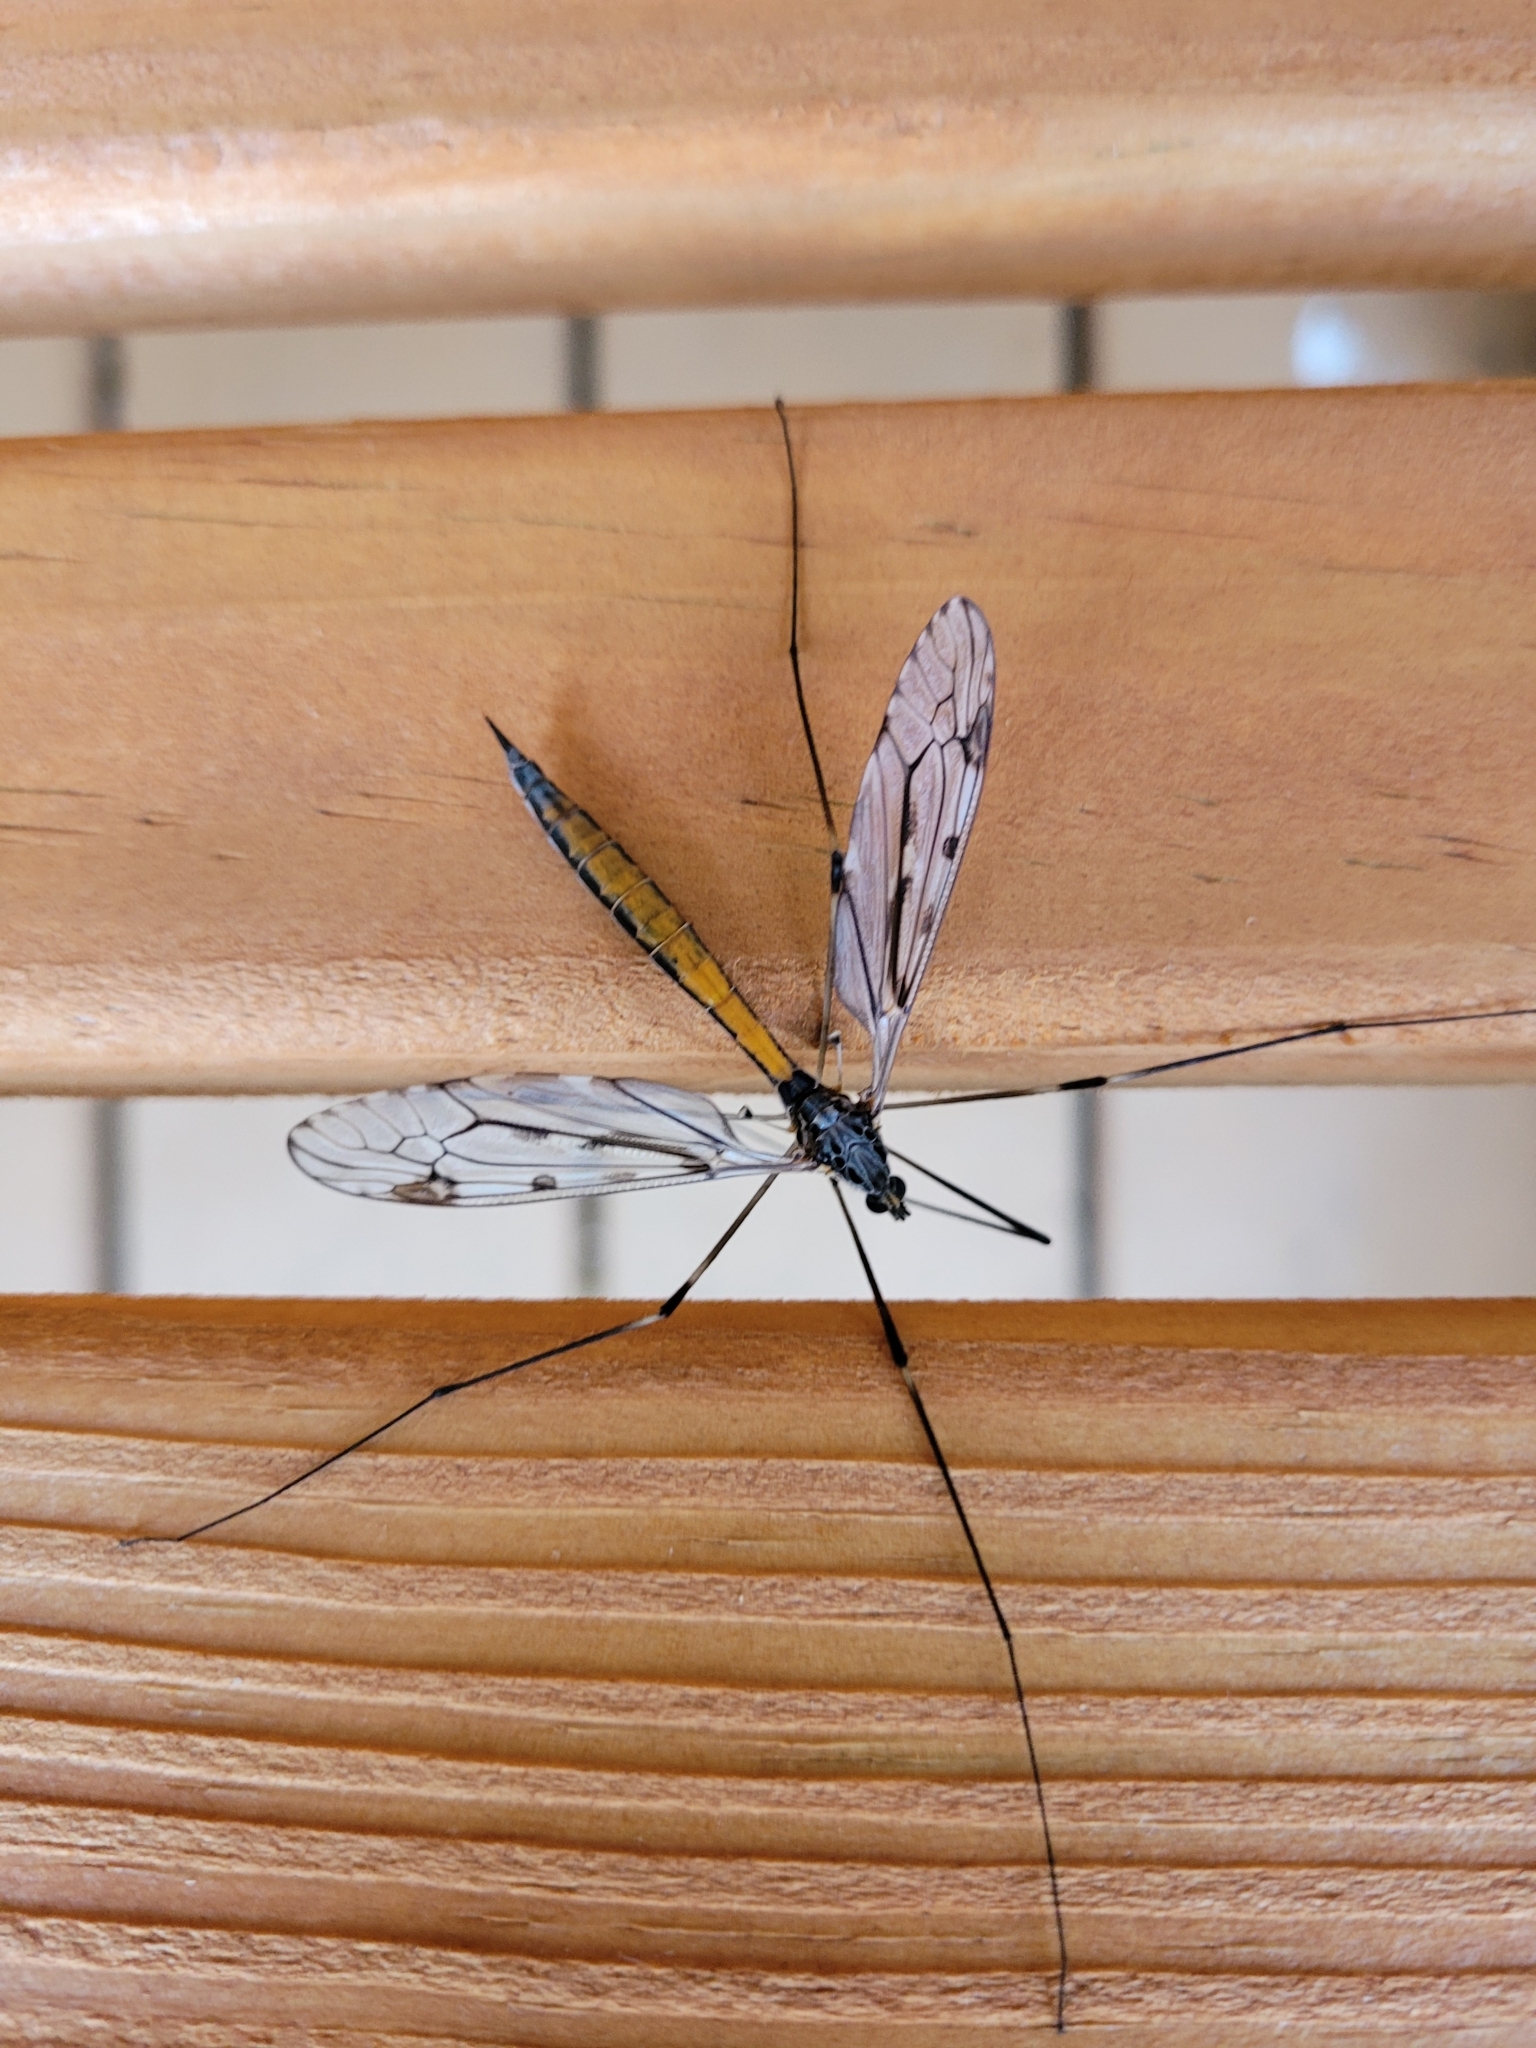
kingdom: Animalia
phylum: Arthropoda
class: Insecta
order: Diptera
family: Tipulidae
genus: Tipula
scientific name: Tipula abdominalis
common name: Giant crane fly
